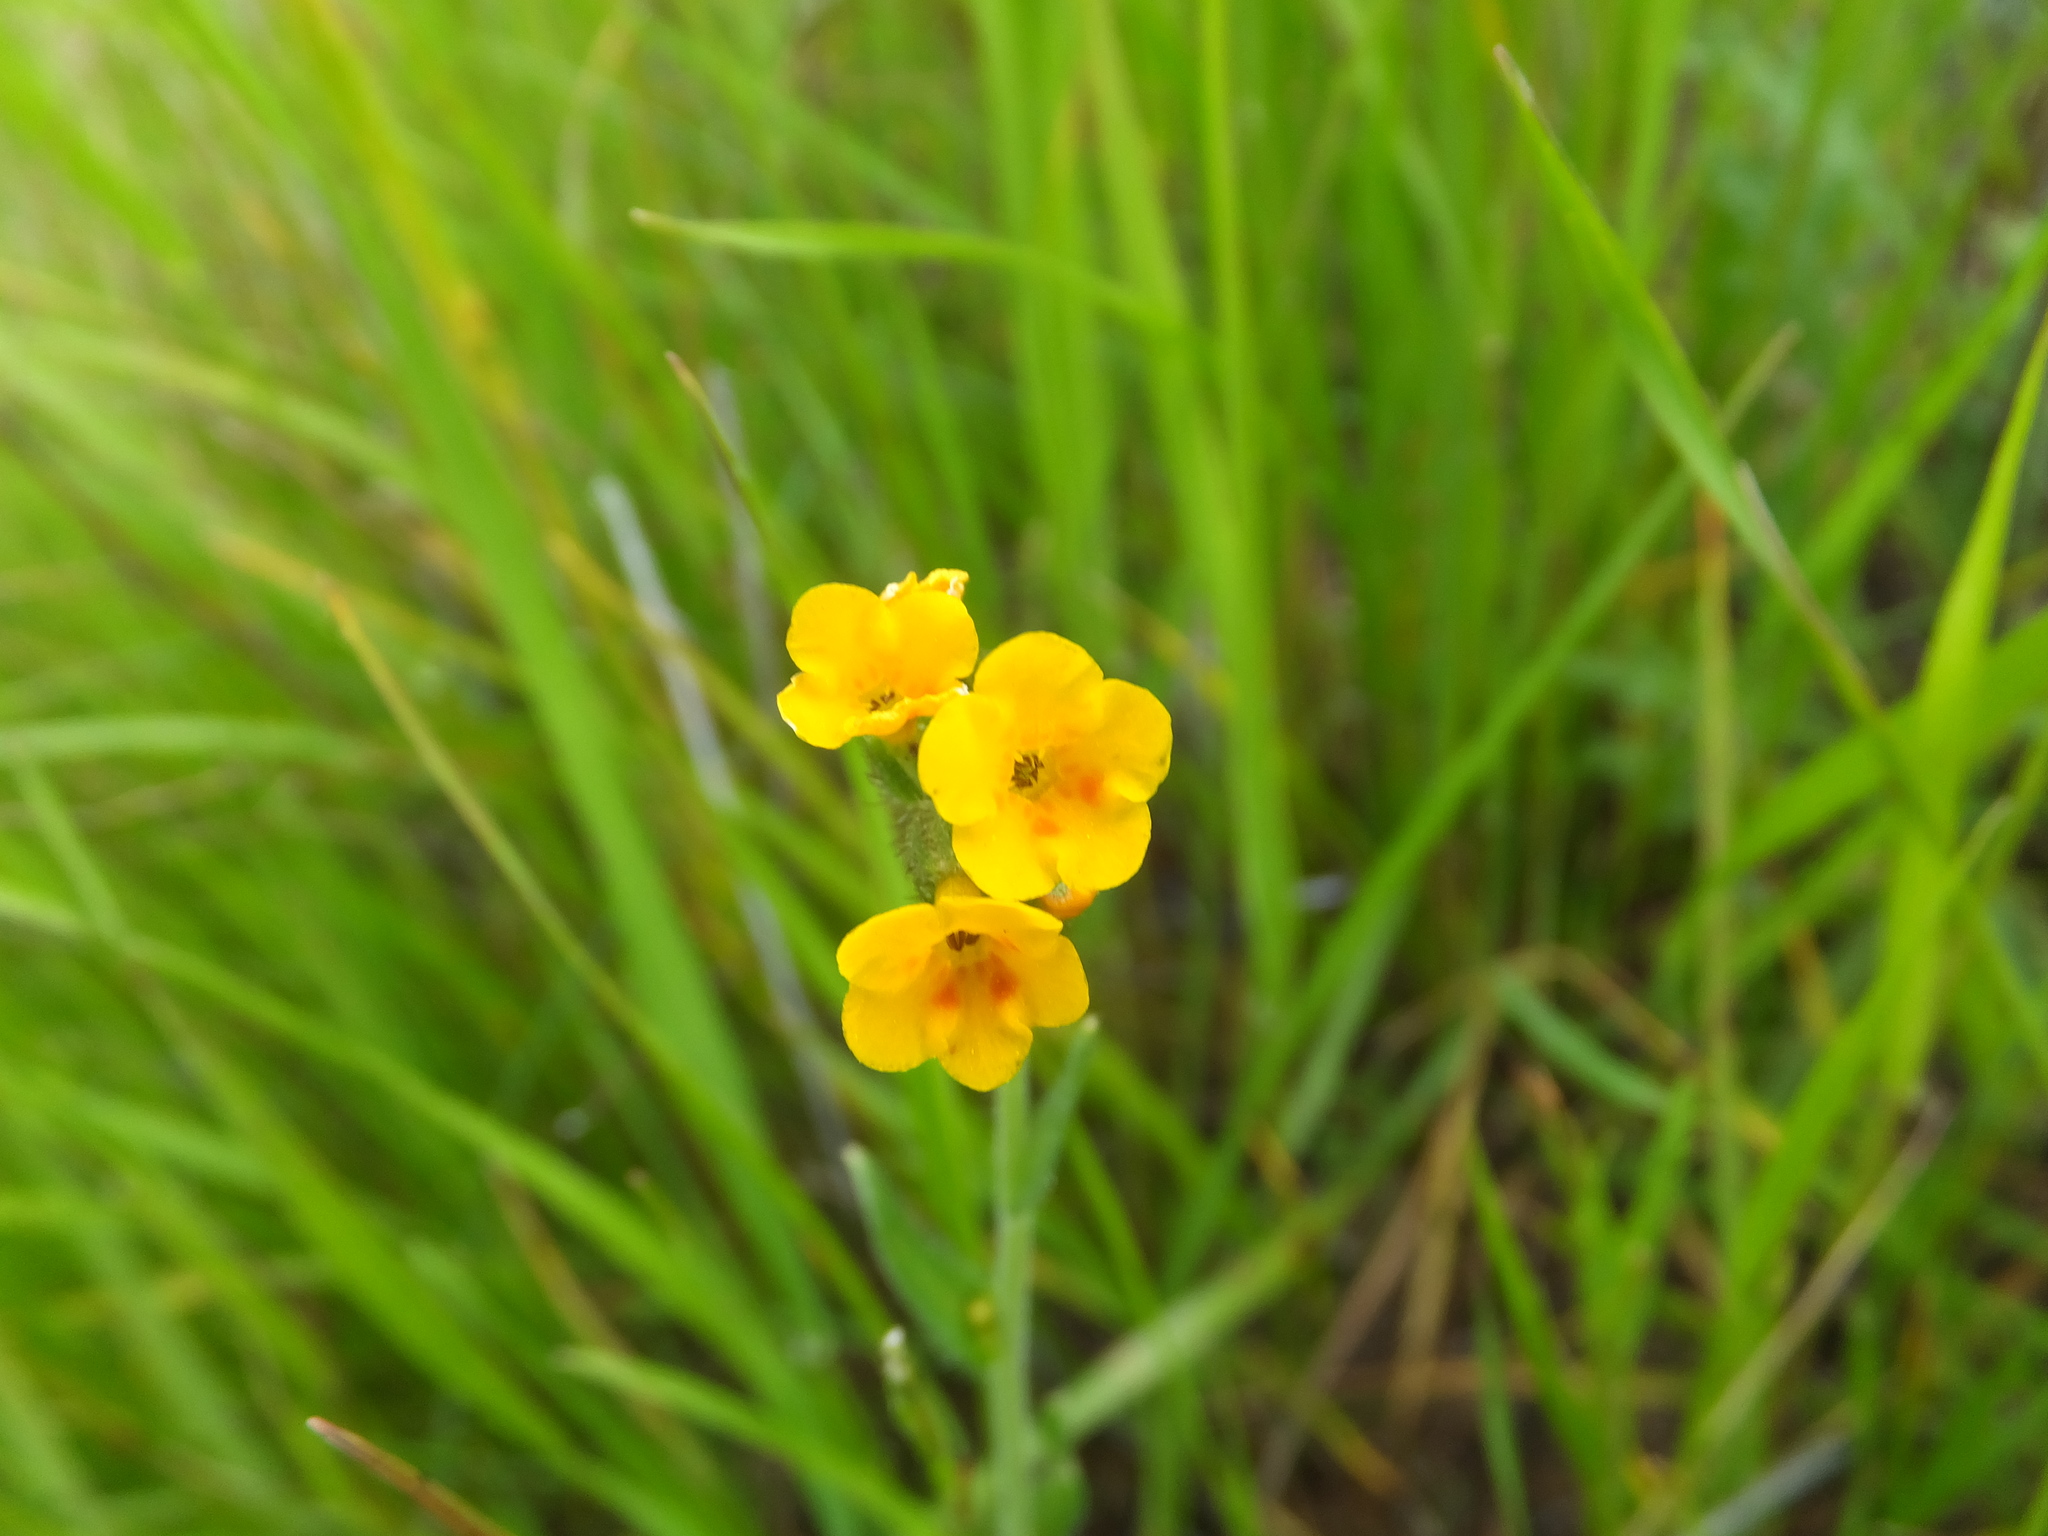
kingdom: Plantae
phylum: Tracheophyta
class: Magnoliopsida
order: Boraginales
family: Boraginaceae
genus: Amsinckia
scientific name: Amsinckia menziesii
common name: Menzies' fiddleneck
